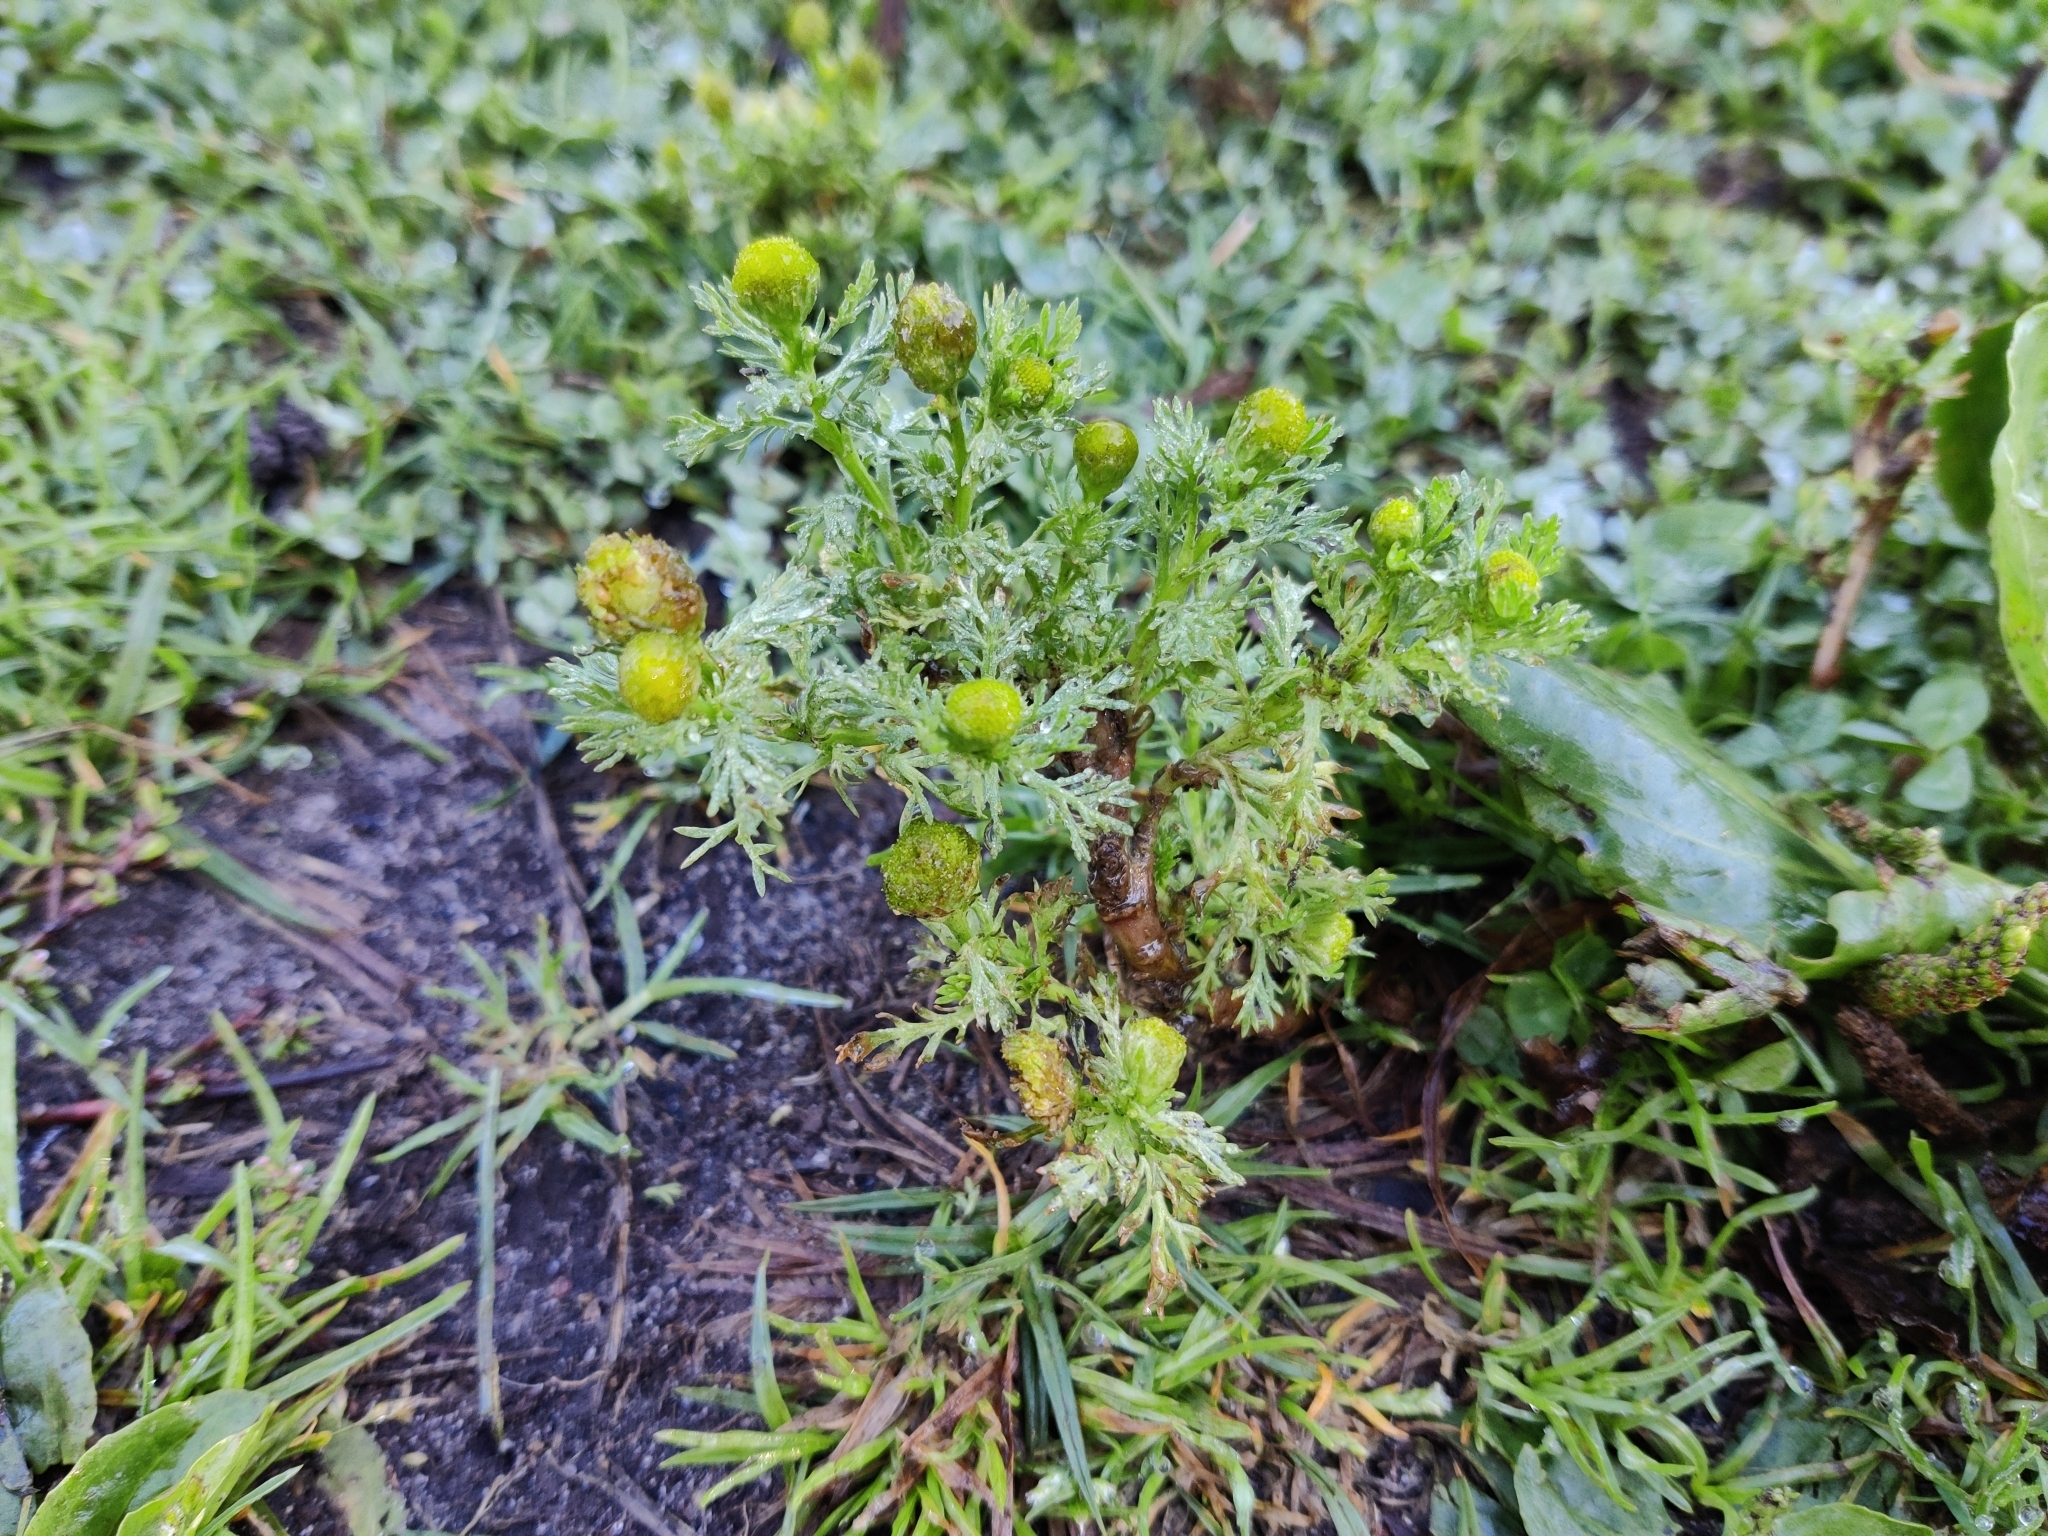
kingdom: Plantae
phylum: Tracheophyta
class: Magnoliopsida
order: Asterales
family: Asteraceae
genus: Matricaria
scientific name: Matricaria discoidea
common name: Disc mayweed
